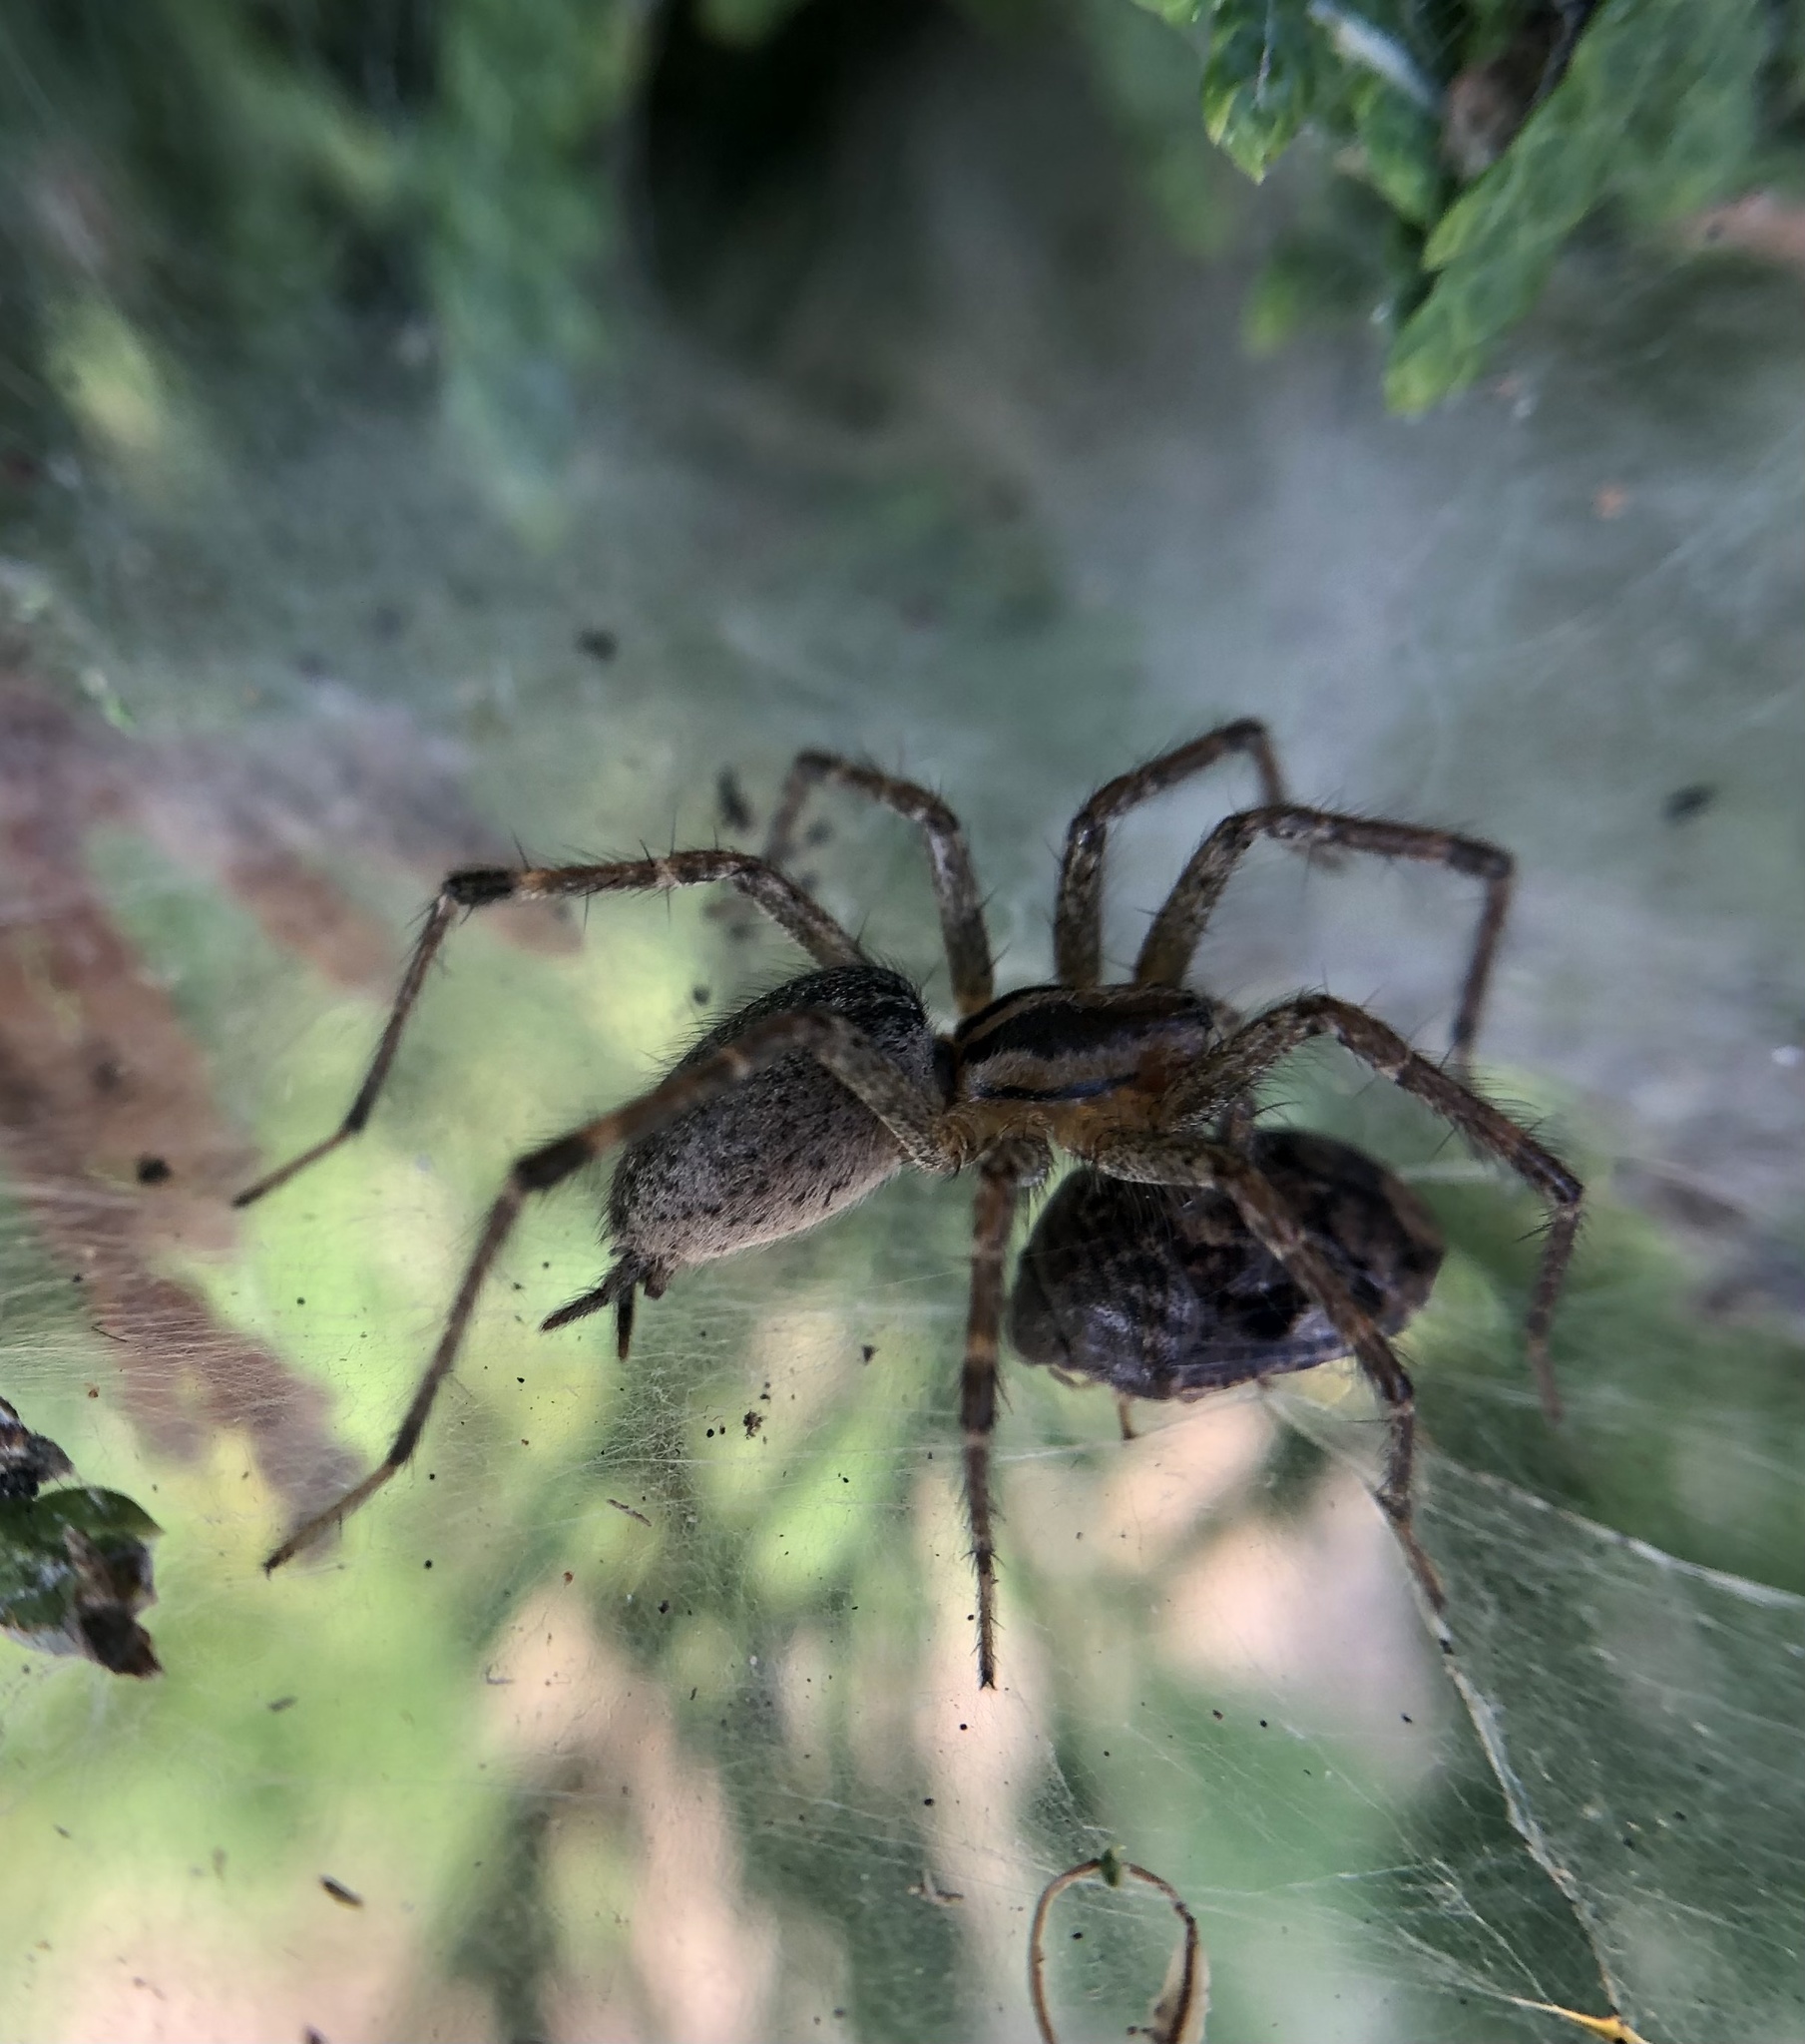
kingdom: Animalia
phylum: Arthropoda
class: Arachnida
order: Araneae
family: Agelenidae
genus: Agelenopsis
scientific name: Agelenopsis
